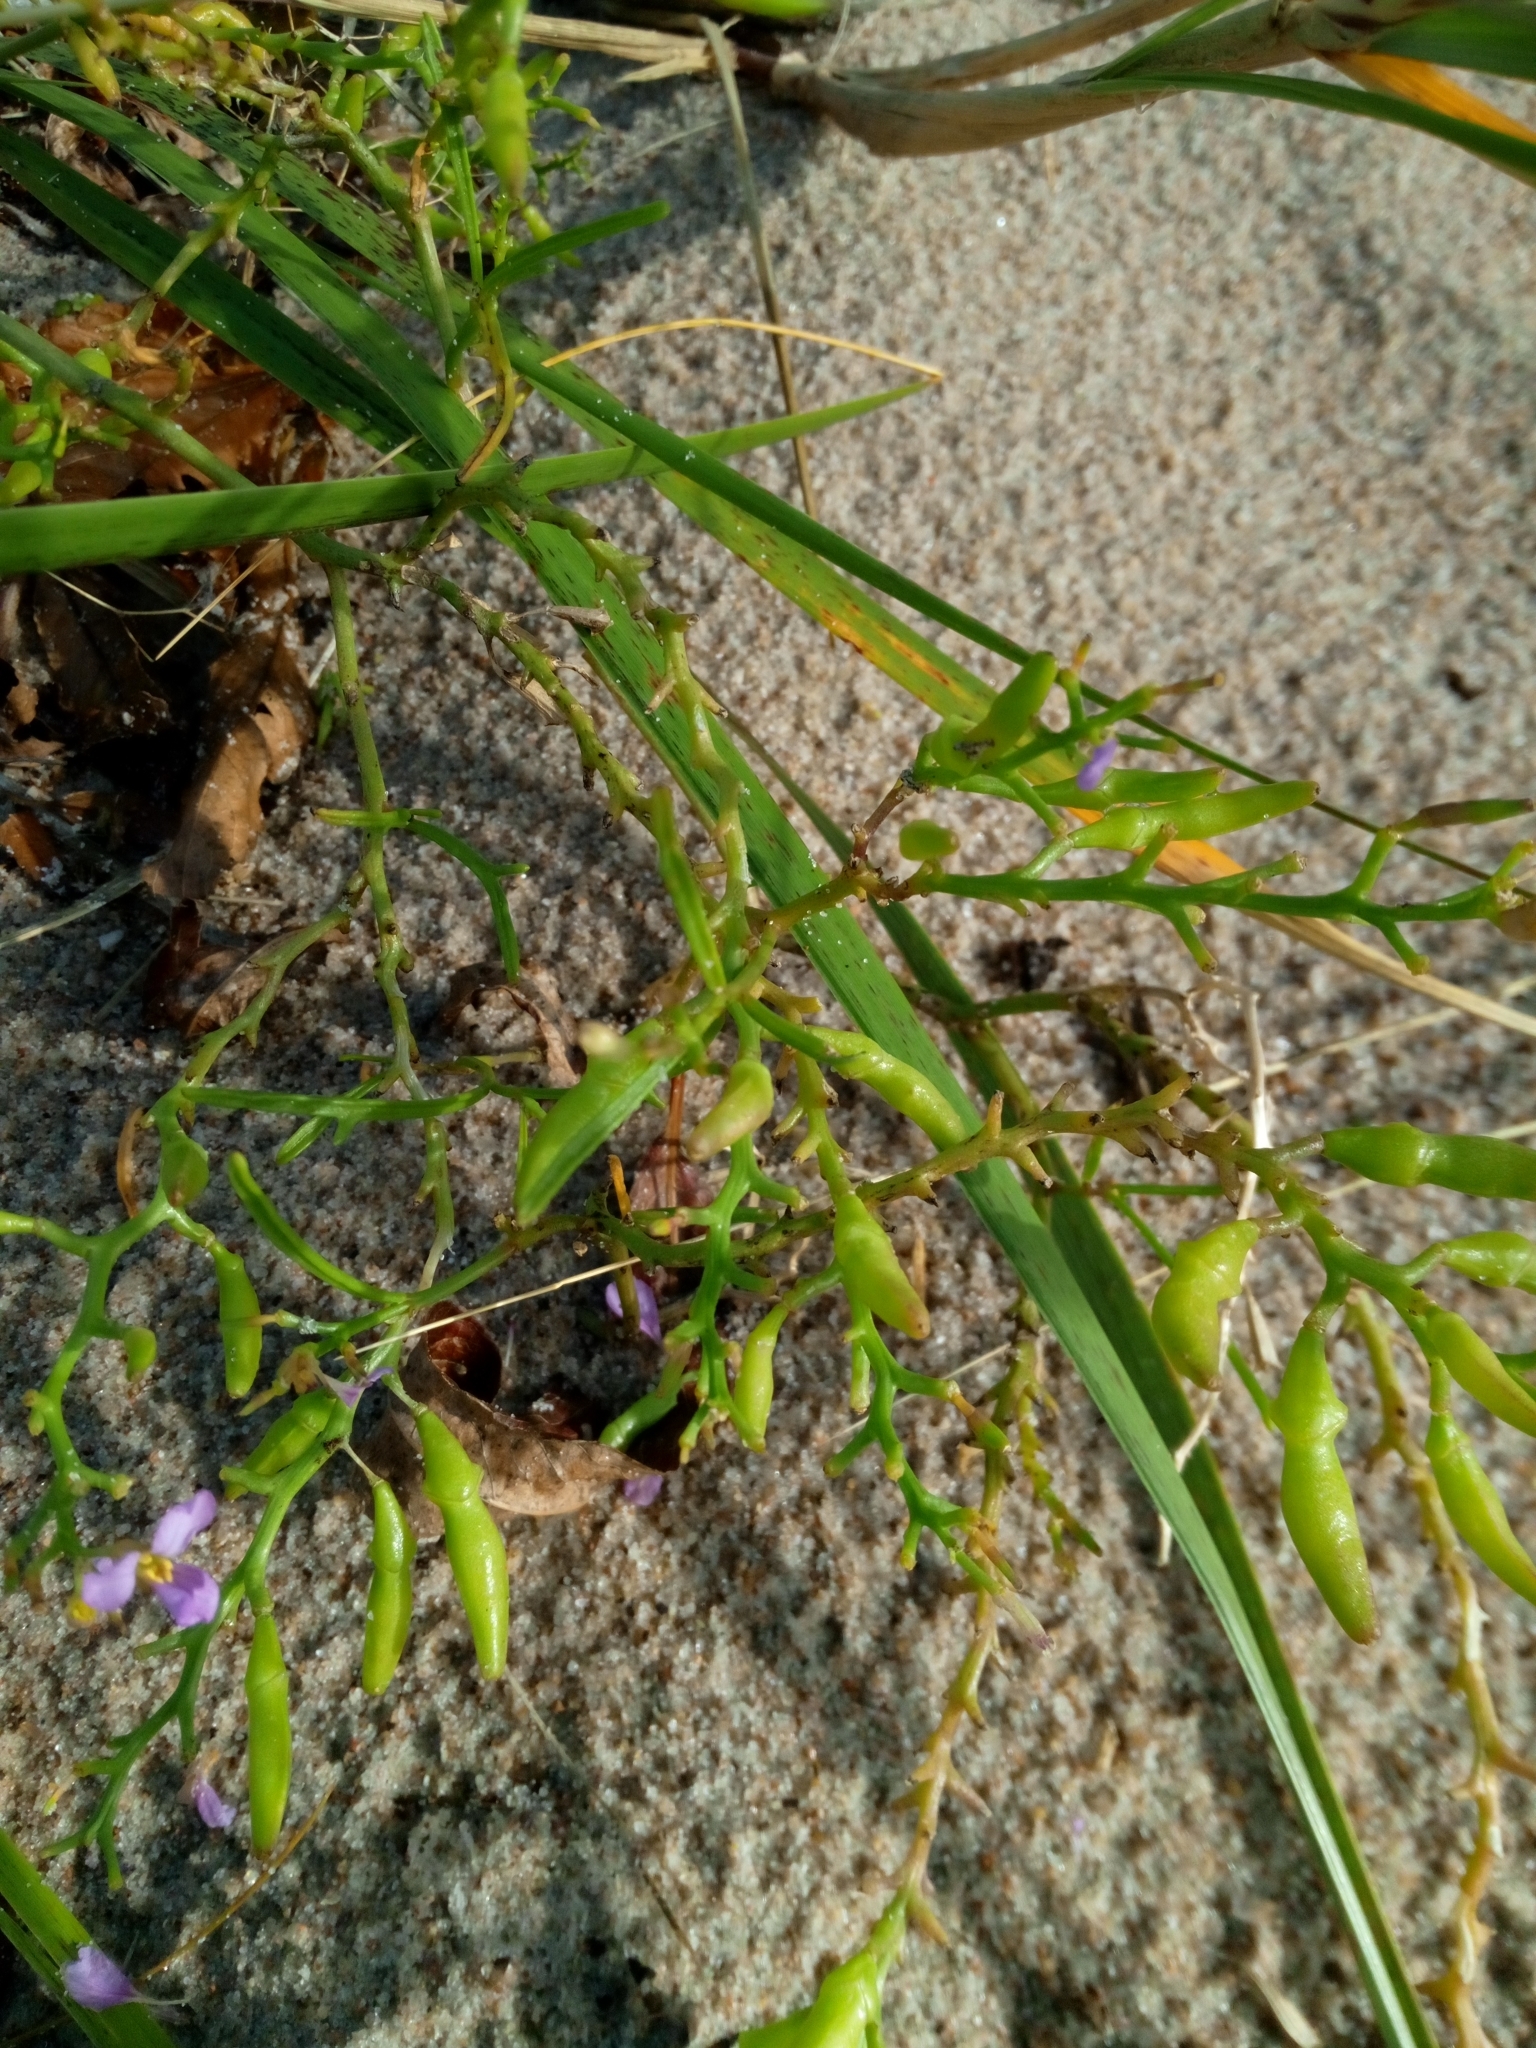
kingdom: Plantae
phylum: Tracheophyta
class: Magnoliopsida
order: Brassicales
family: Brassicaceae
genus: Cakile
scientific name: Cakile maritima
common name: Sea rocket
